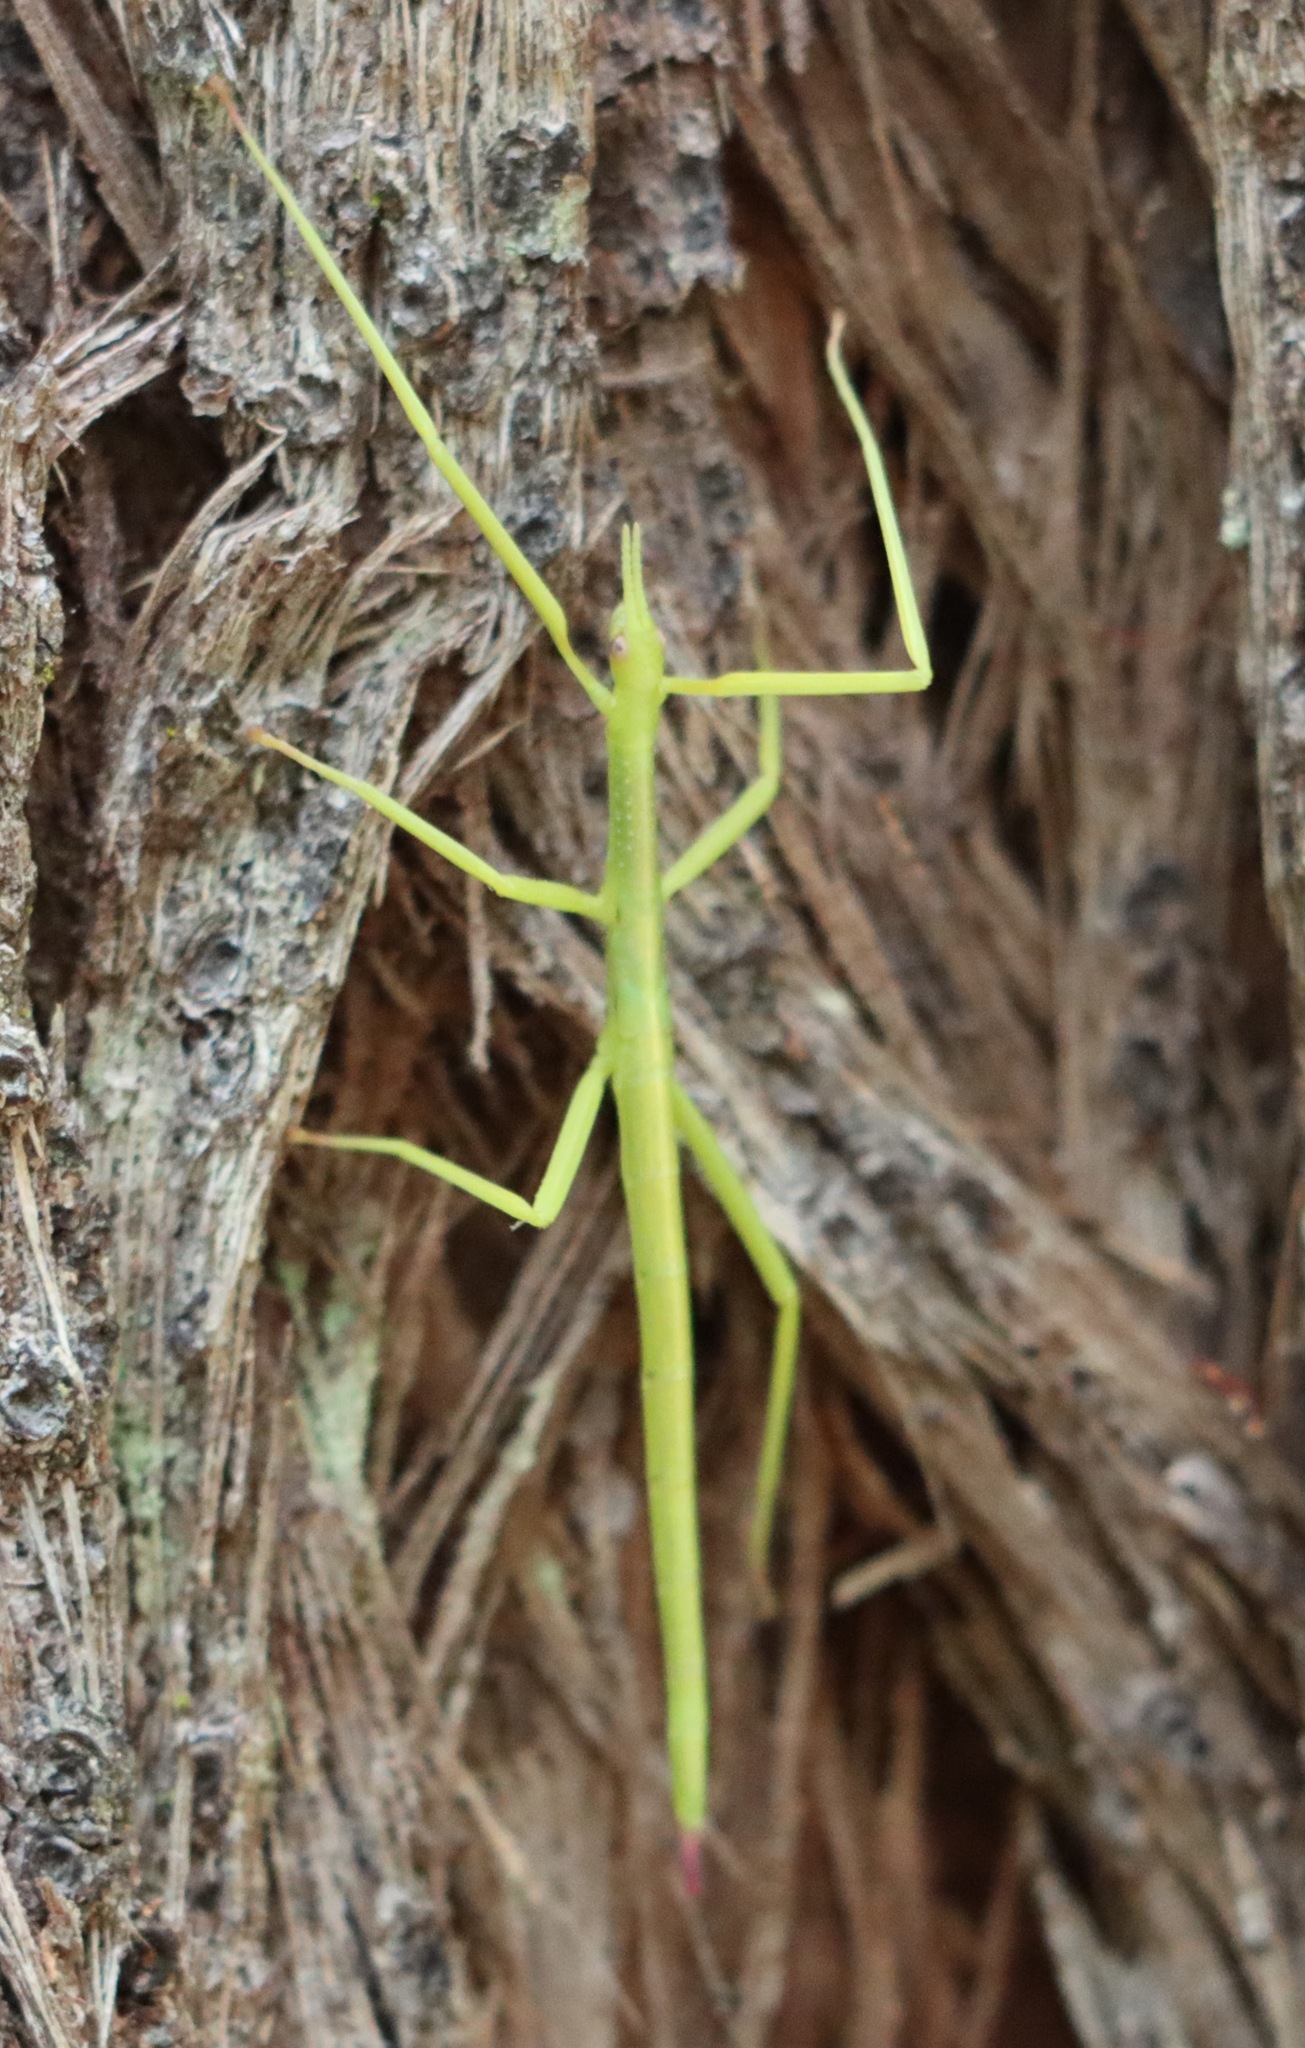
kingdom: Animalia
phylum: Arthropoda
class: Insecta
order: Phasmida
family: Phasmatidae
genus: Didymuria
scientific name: Didymuria violescens
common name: Spur-legged stick-insect
